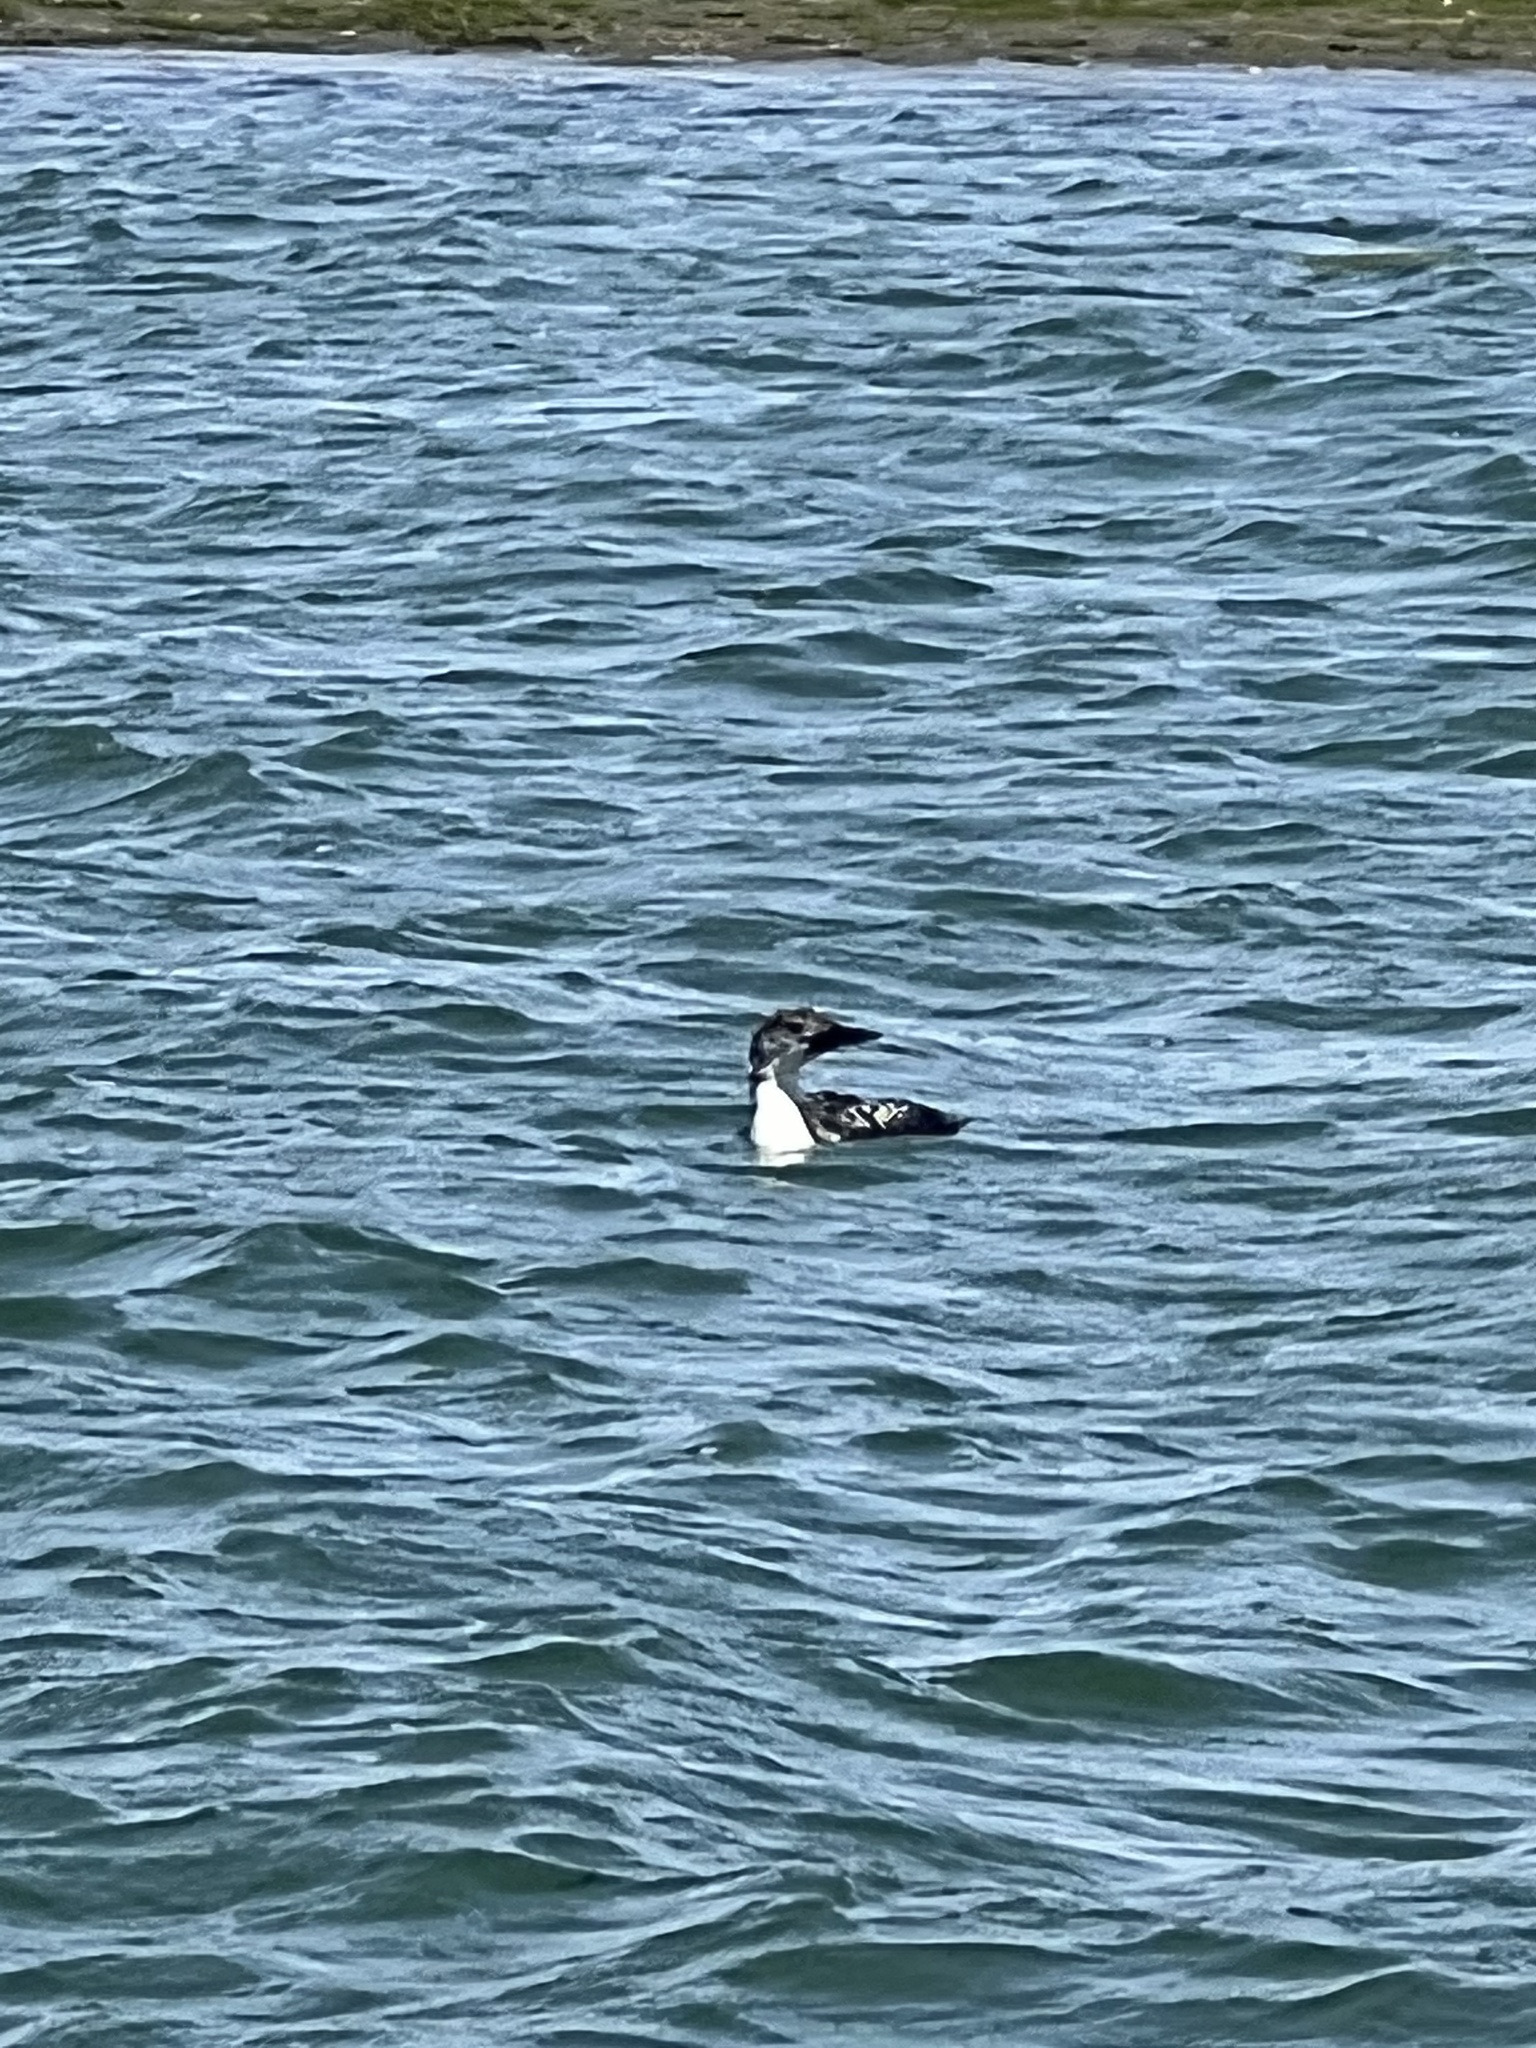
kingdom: Animalia
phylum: Chordata
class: Aves
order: Gaviiformes
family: Gaviidae
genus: Gavia
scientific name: Gavia immer
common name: Common loon
